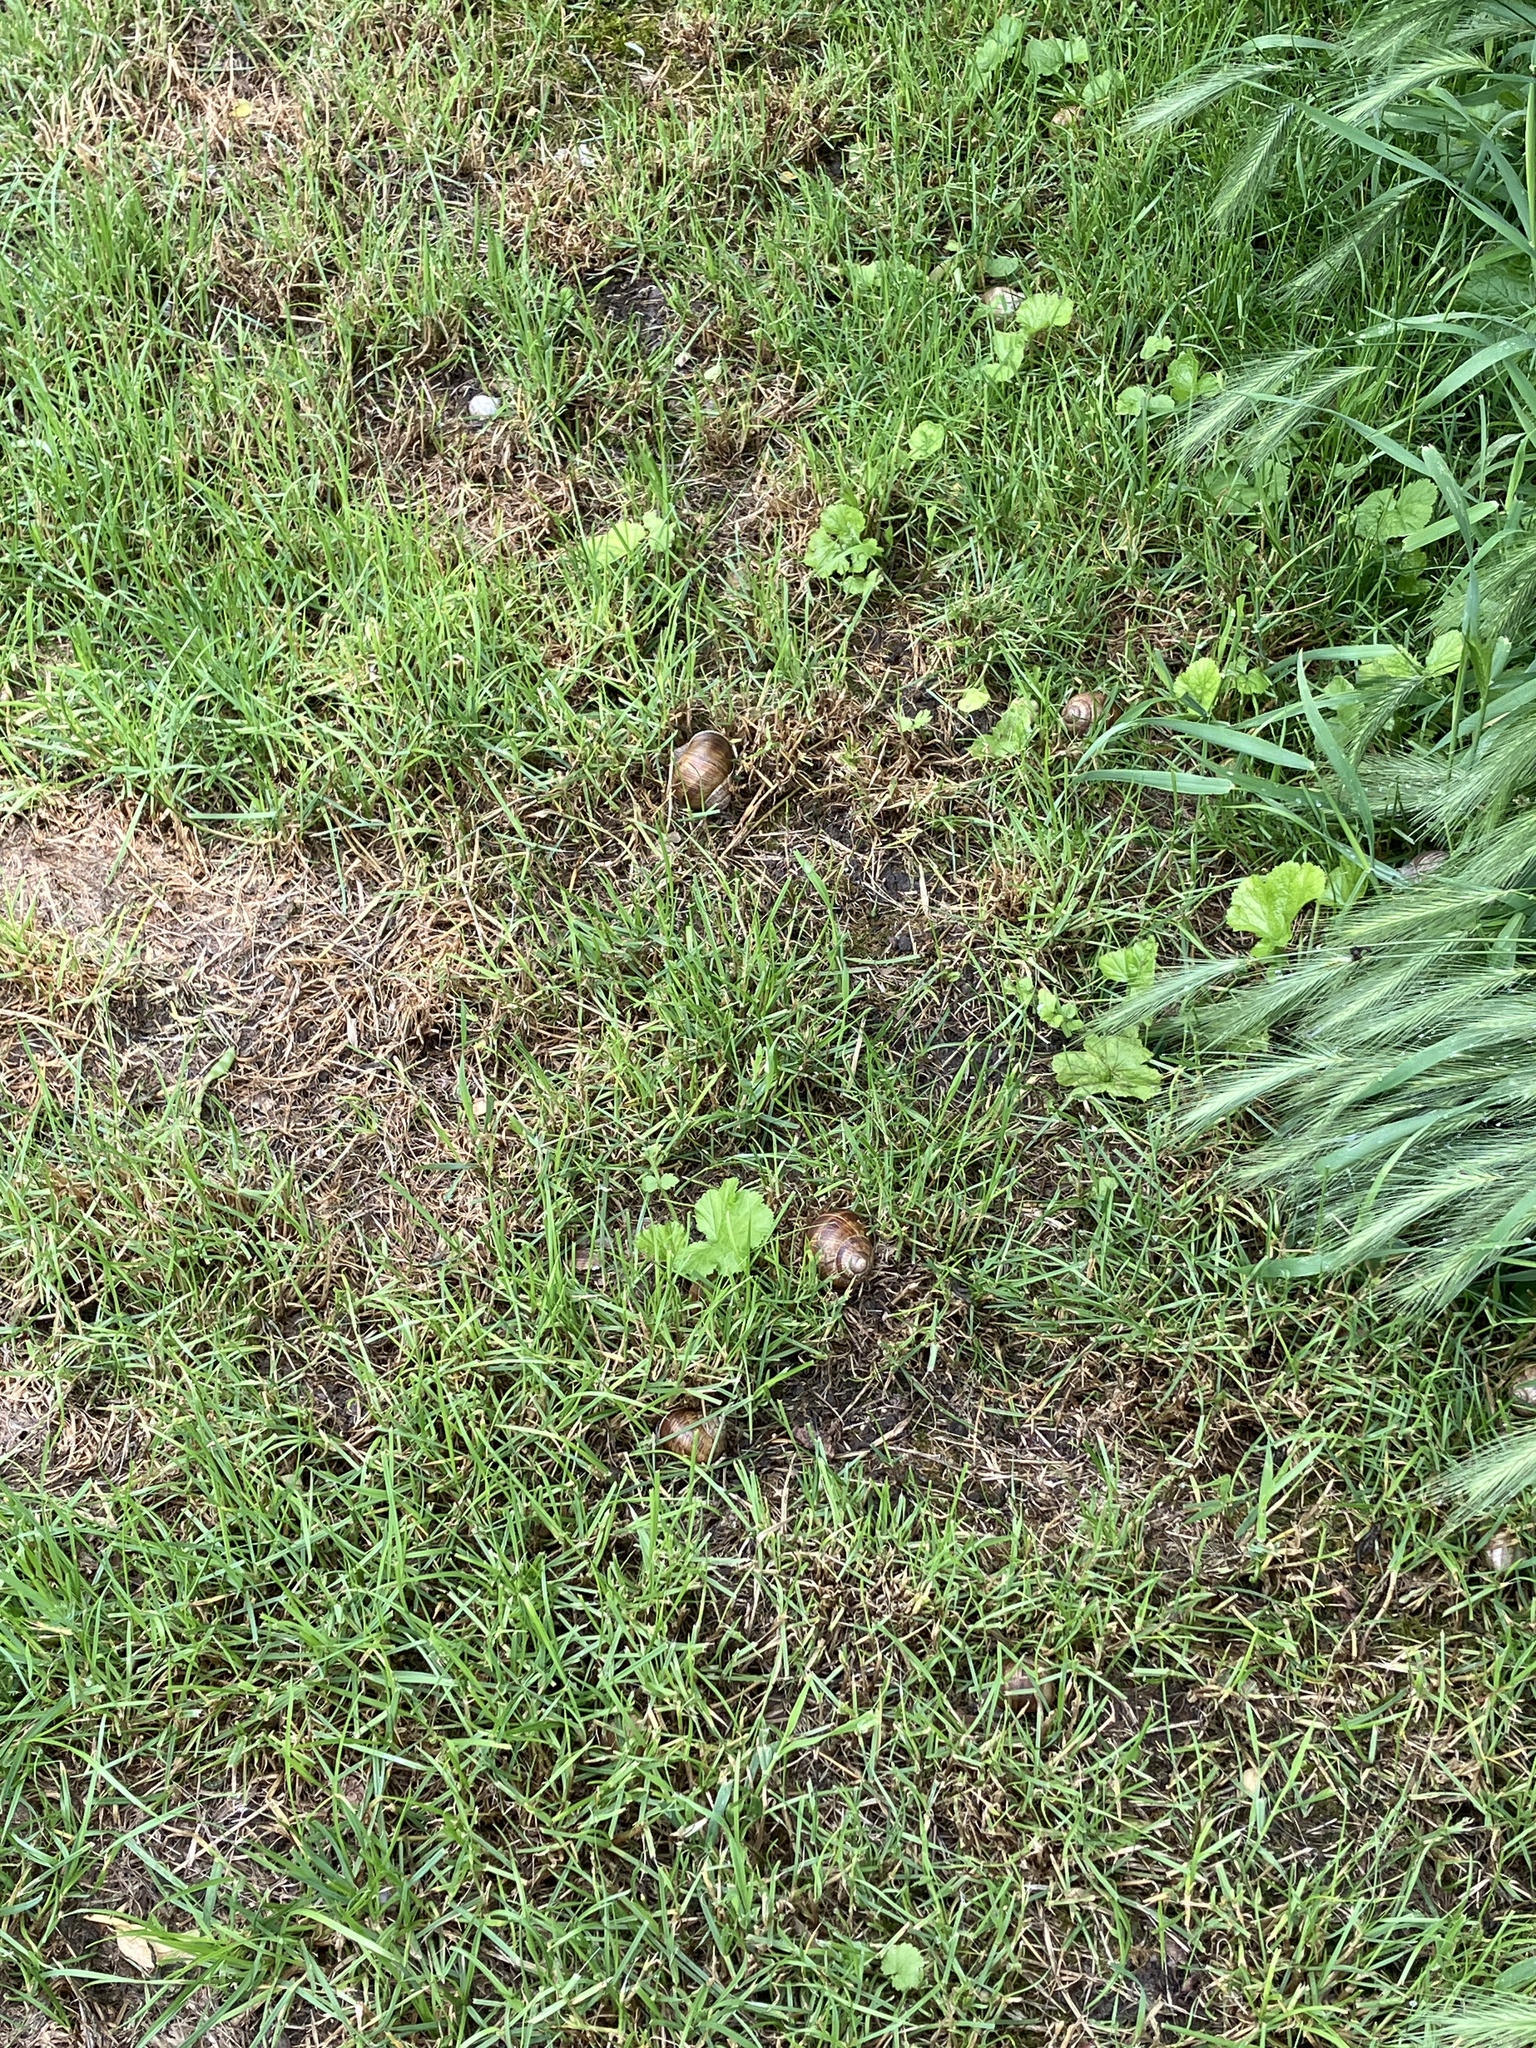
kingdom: Animalia
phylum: Mollusca
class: Gastropoda
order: Stylommatophora
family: Helicidae
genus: Helix
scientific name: Helix pomatia
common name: Roman snail
